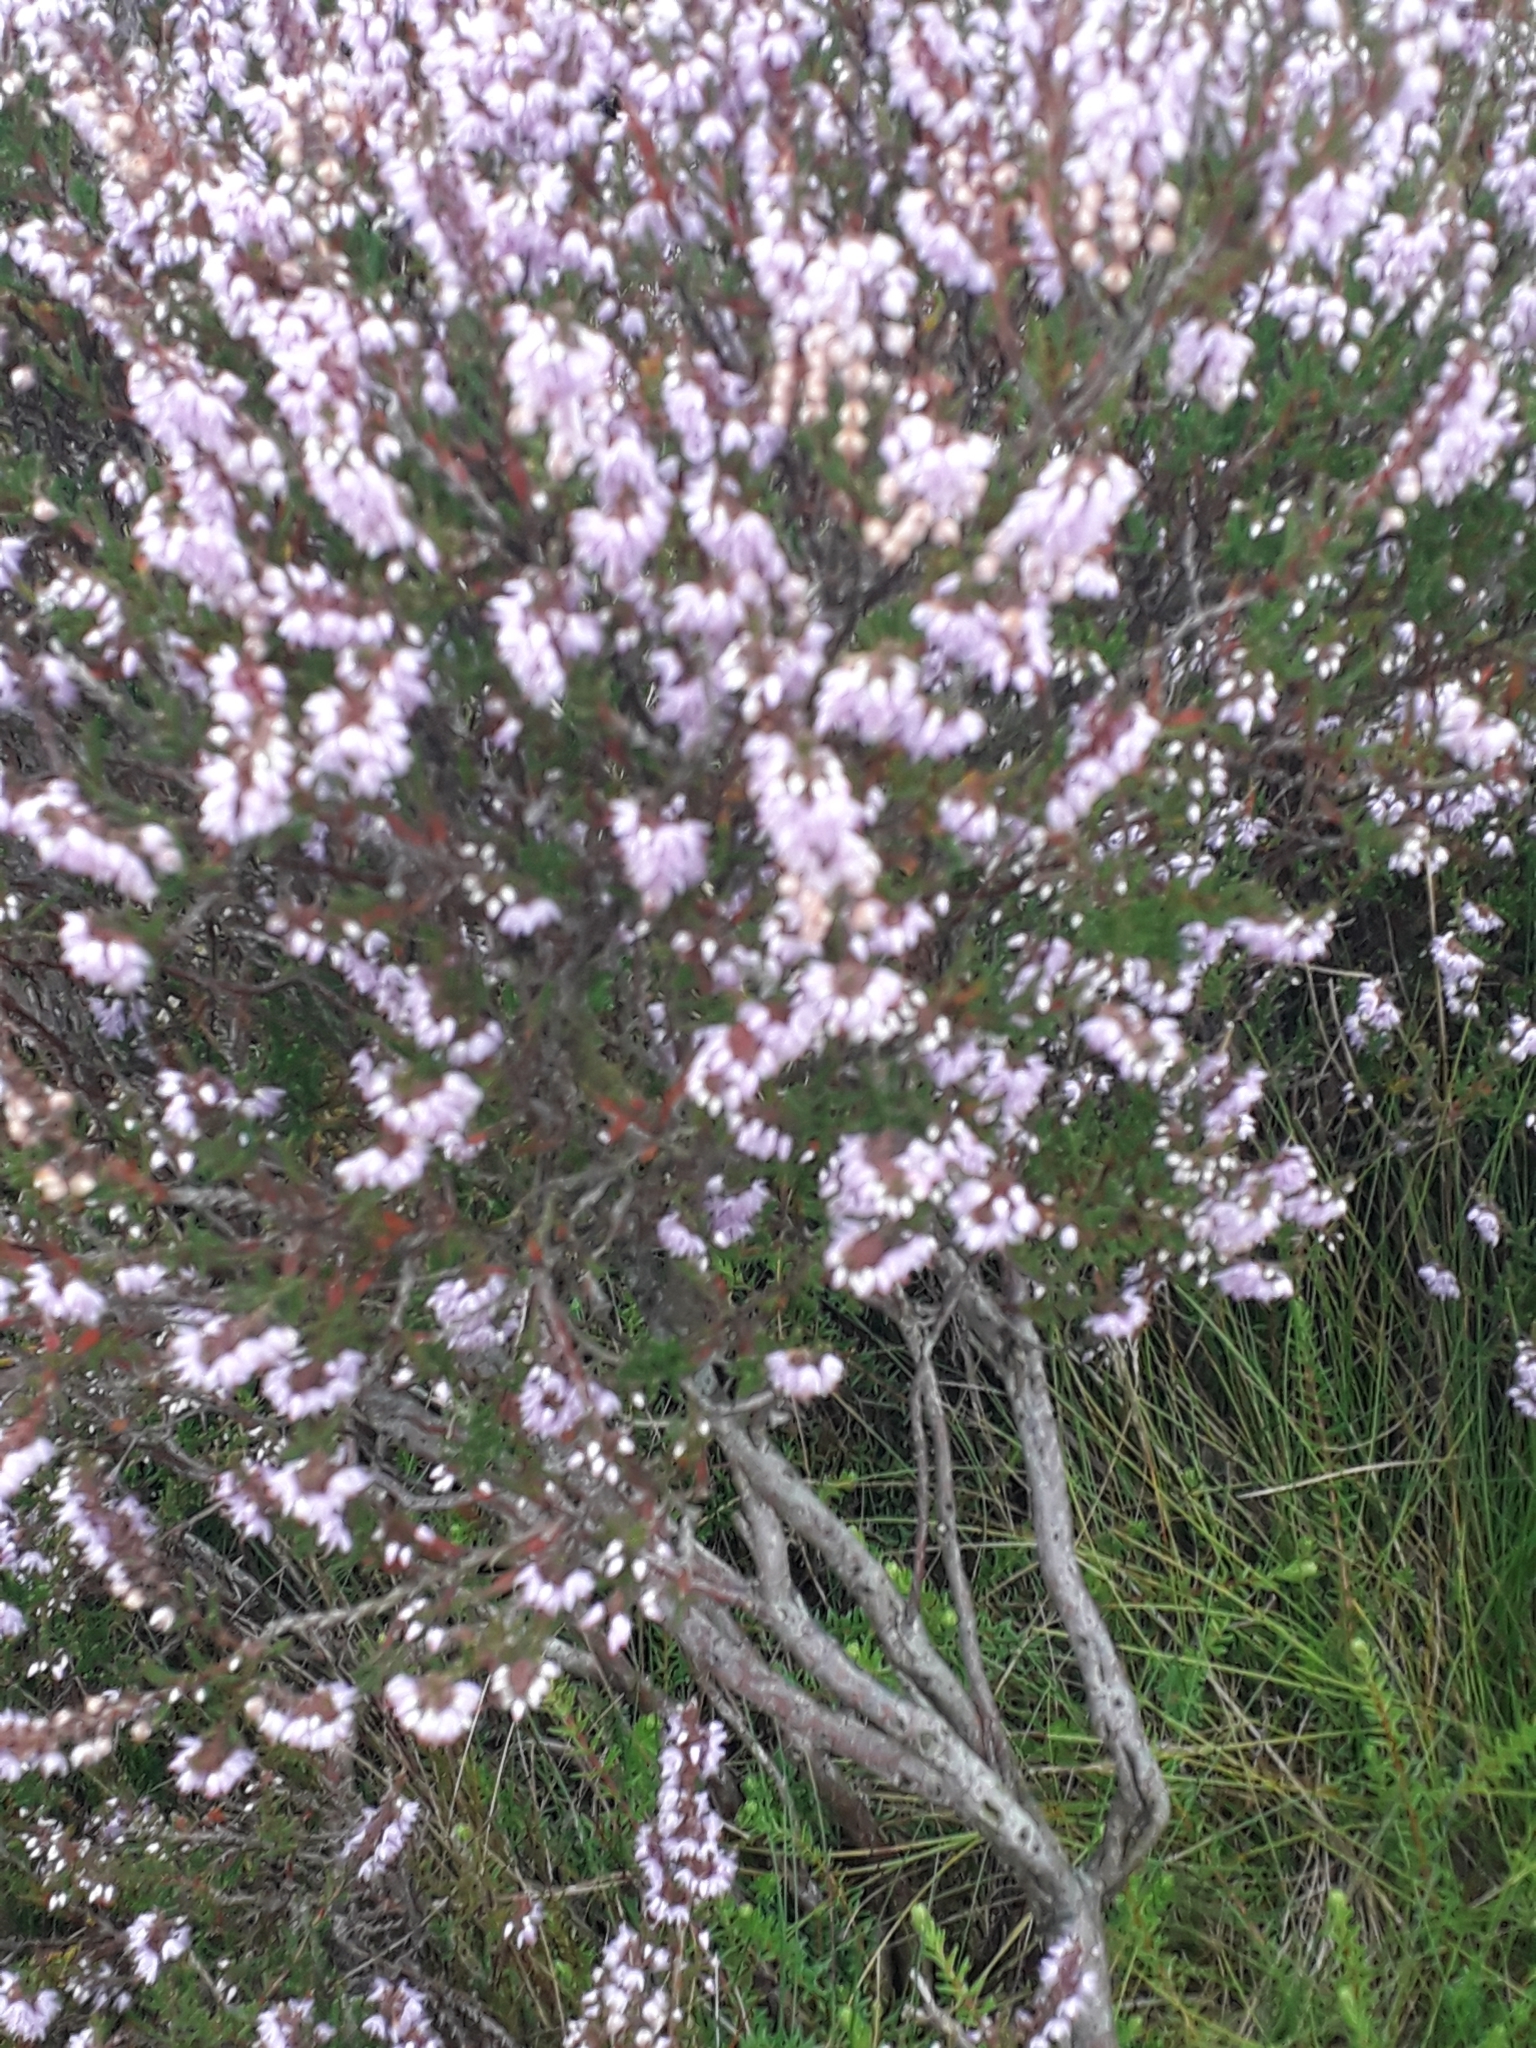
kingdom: Plantae
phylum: Tracheophyta
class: Magnoliopsida
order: Ericales
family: Ericaceae
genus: Calluna
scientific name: Calluna vulgaris
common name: Heather
